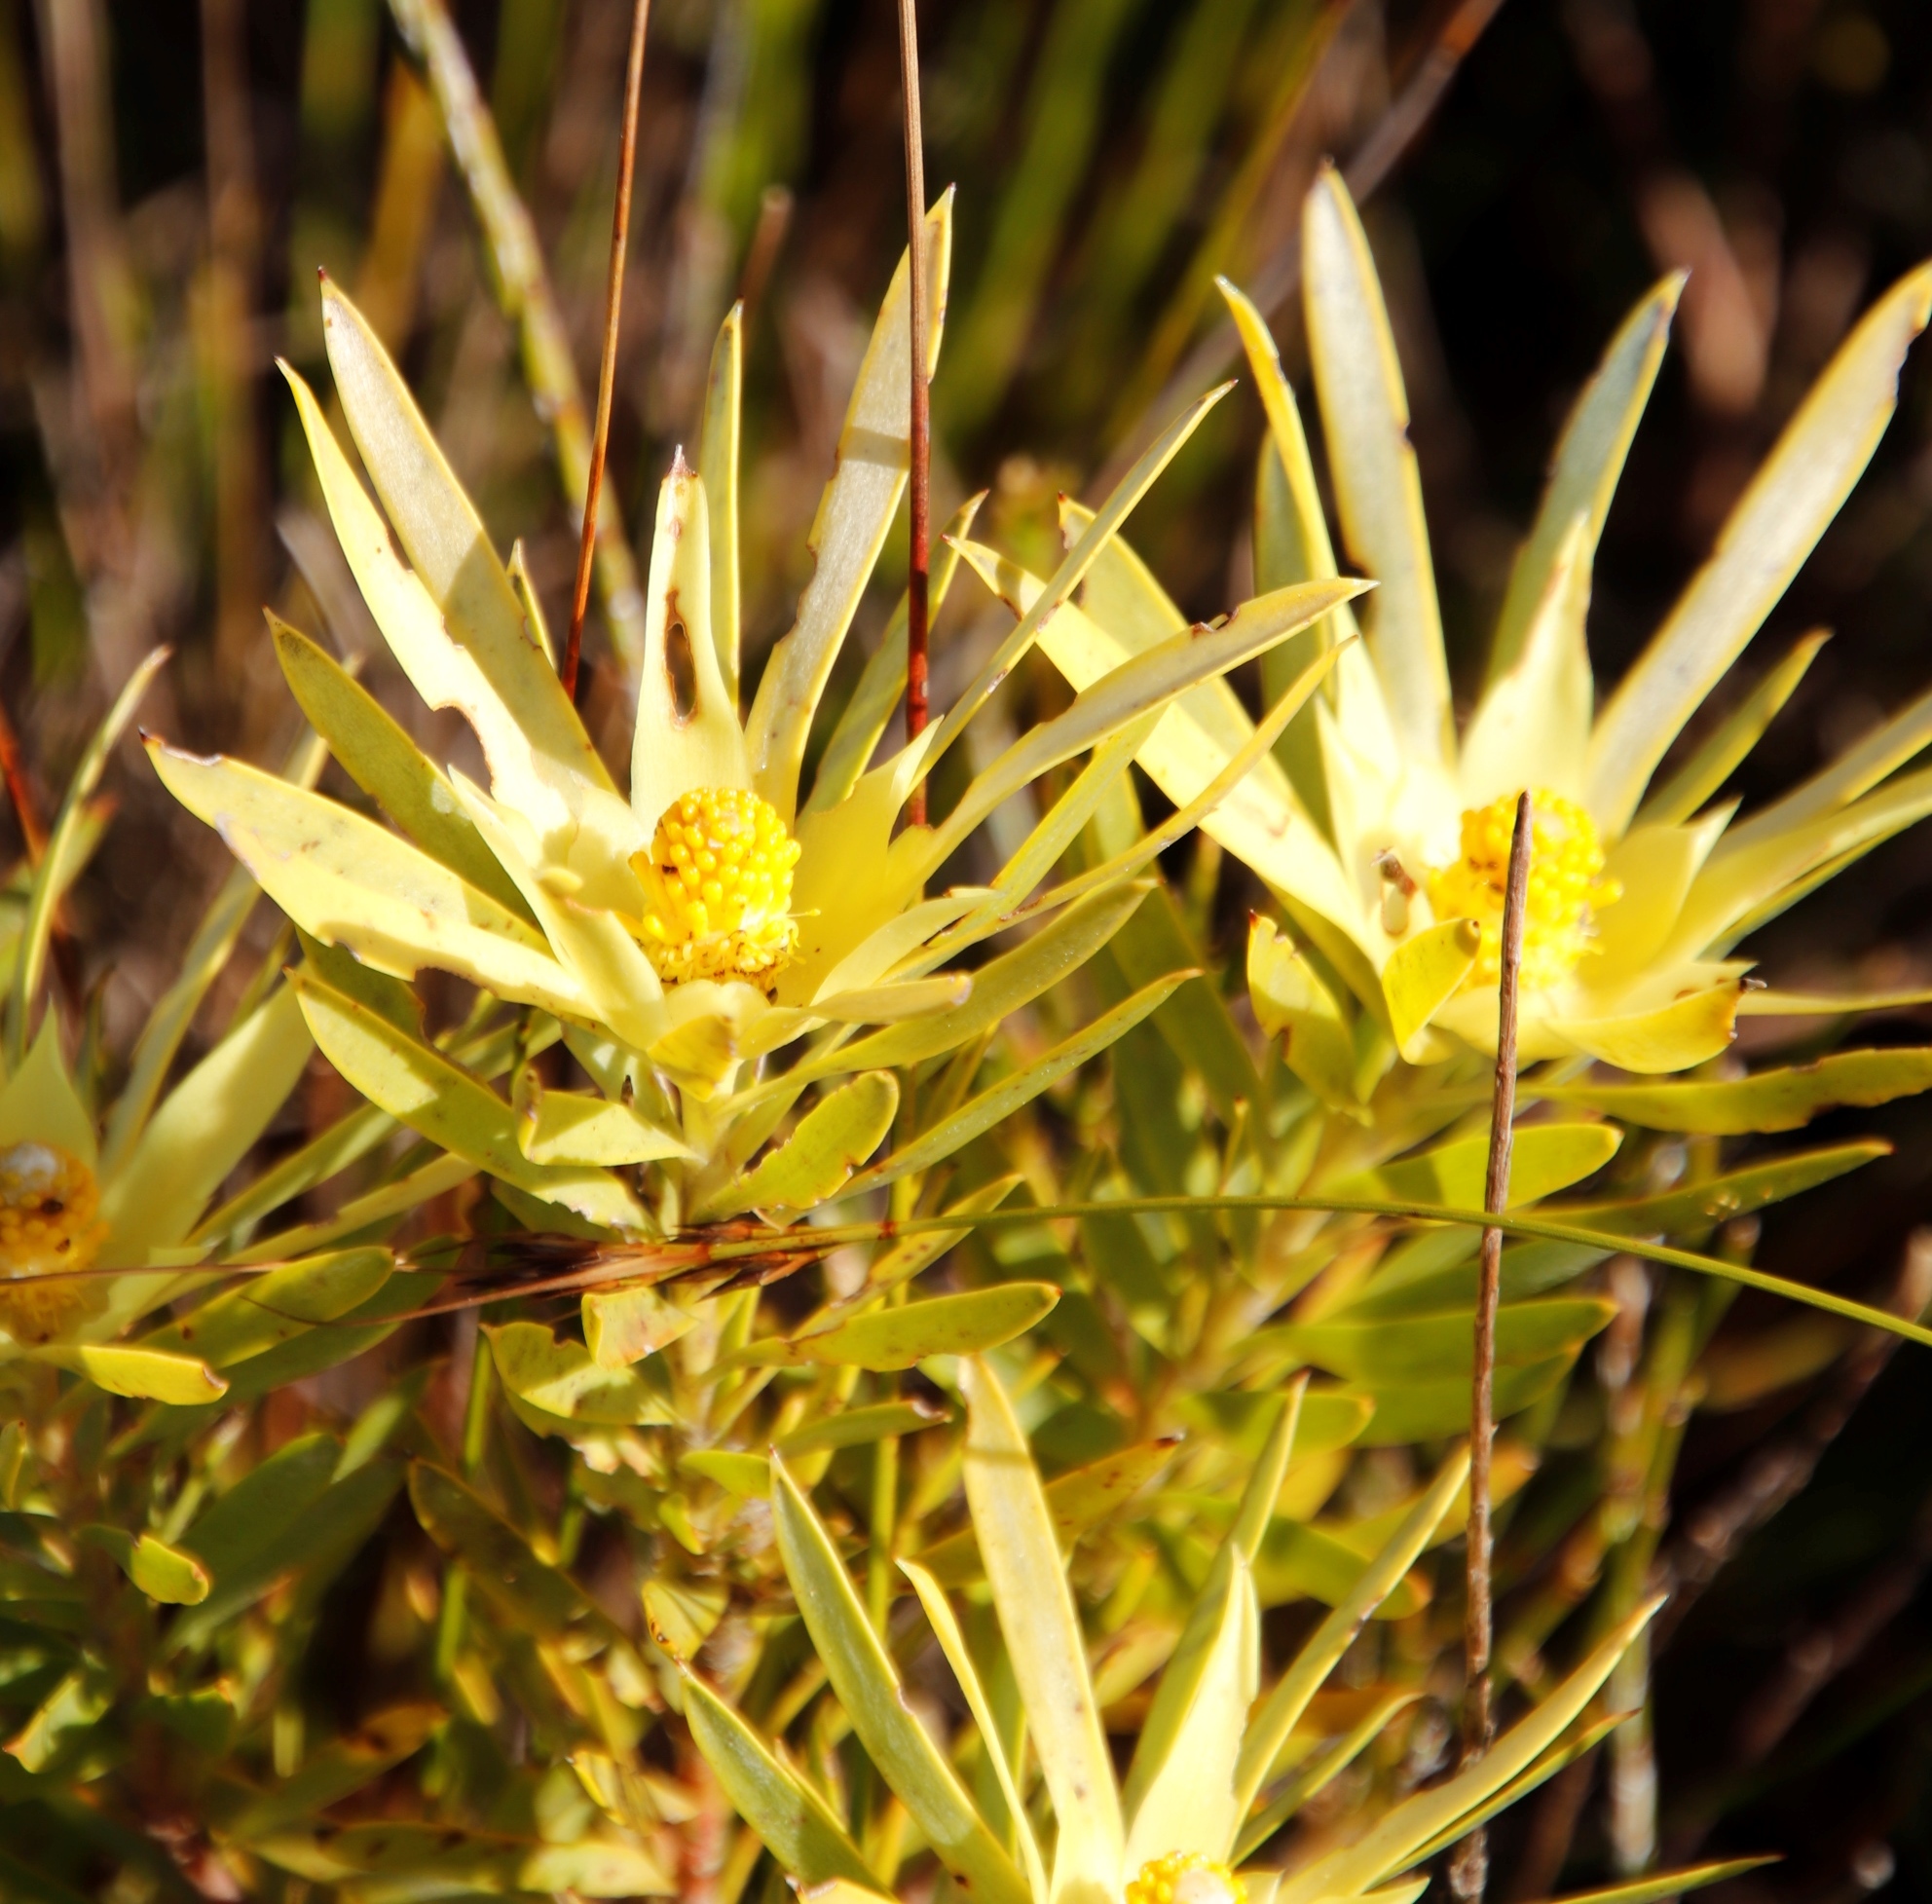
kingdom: Plantae
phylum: Tracheophyta
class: Magnoliopsida
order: Proteales
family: Proteaceae
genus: Leucadendron
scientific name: Leucadendron xanthoconus
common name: Sickle-leaf conebush
